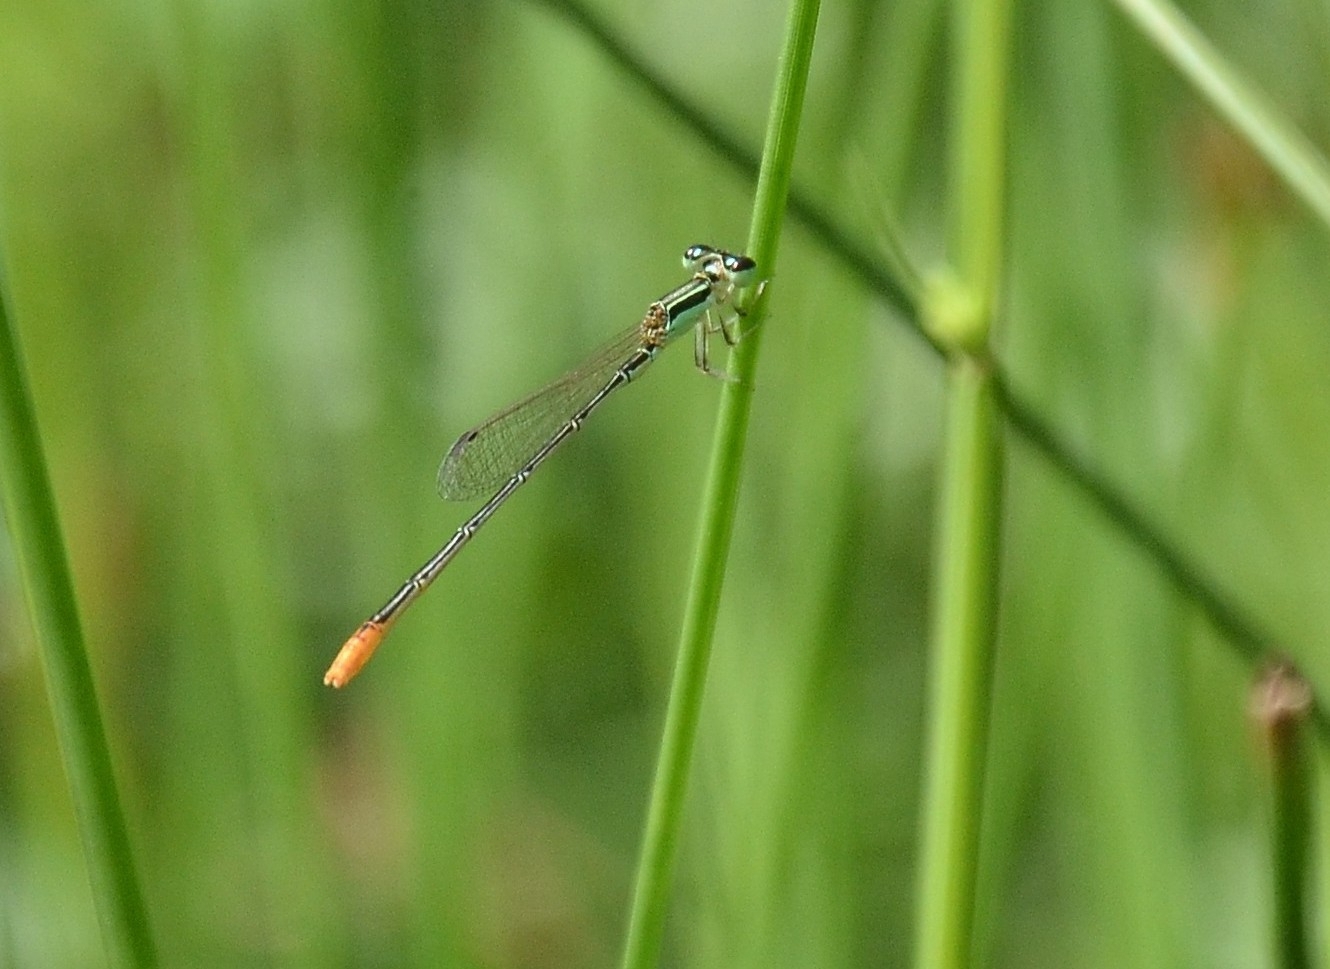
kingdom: Animalia
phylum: Arthropoda
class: Insecta
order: Odonata
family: Coenagrionidae
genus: Agriocnemis
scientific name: Agriocnemis pygmaea
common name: Pygmy wisp
